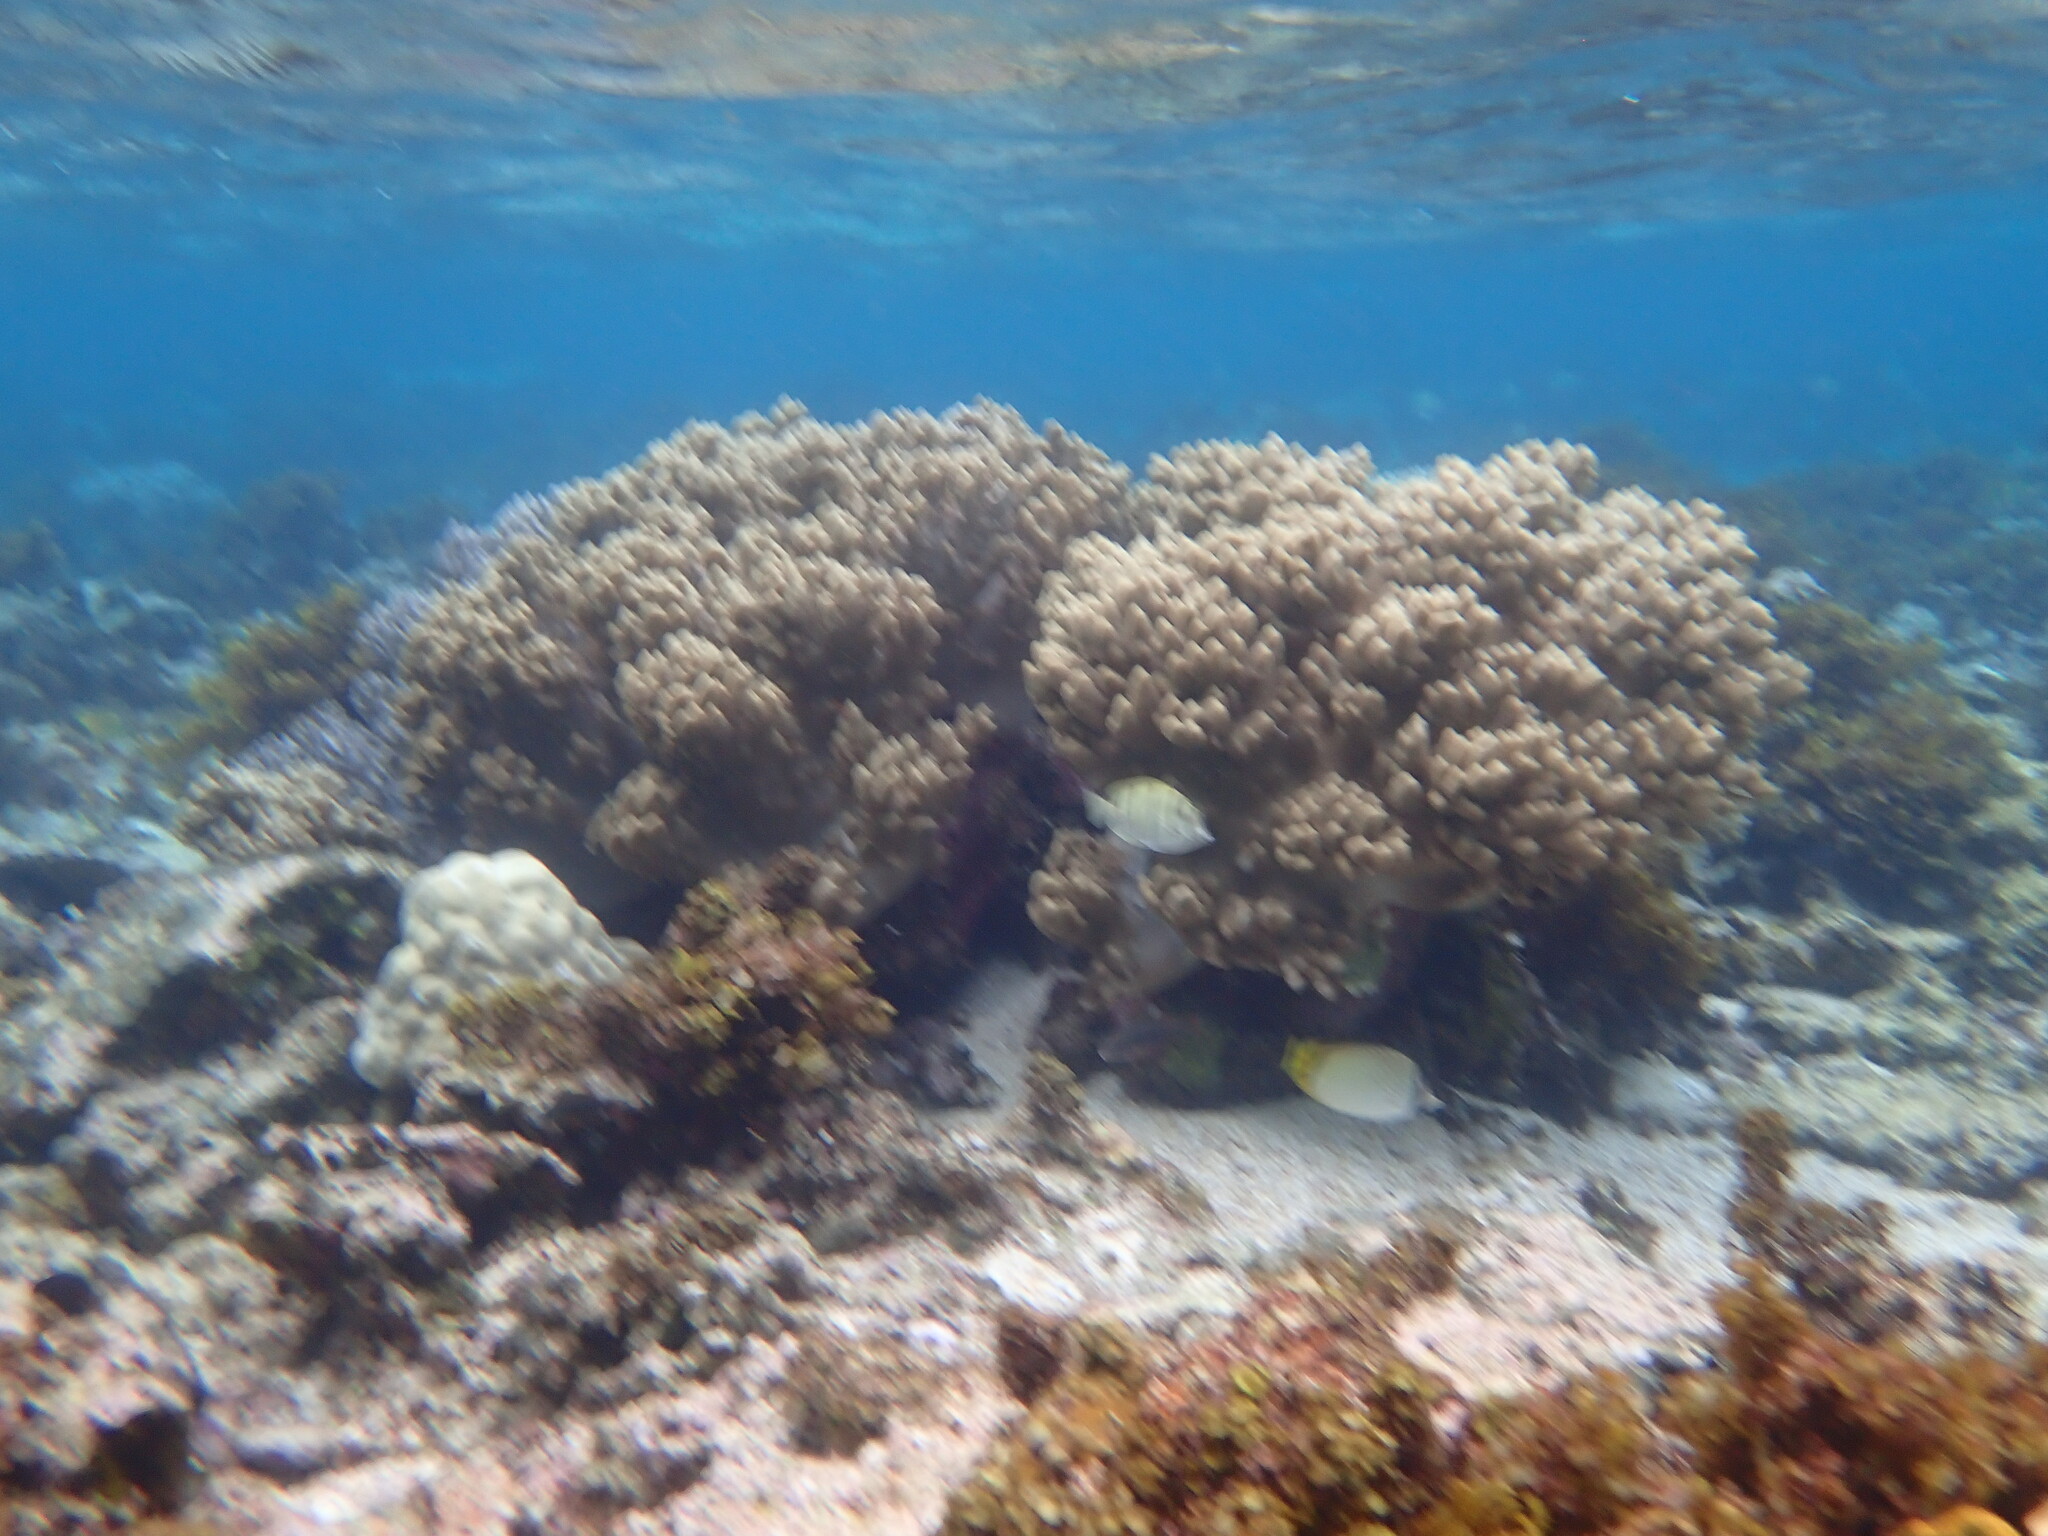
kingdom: Animalia
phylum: Chordata
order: Perciformes
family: Acanthuridae
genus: Acanthurus
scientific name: Acanthurus triostegus
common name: Convict surgeonfish
